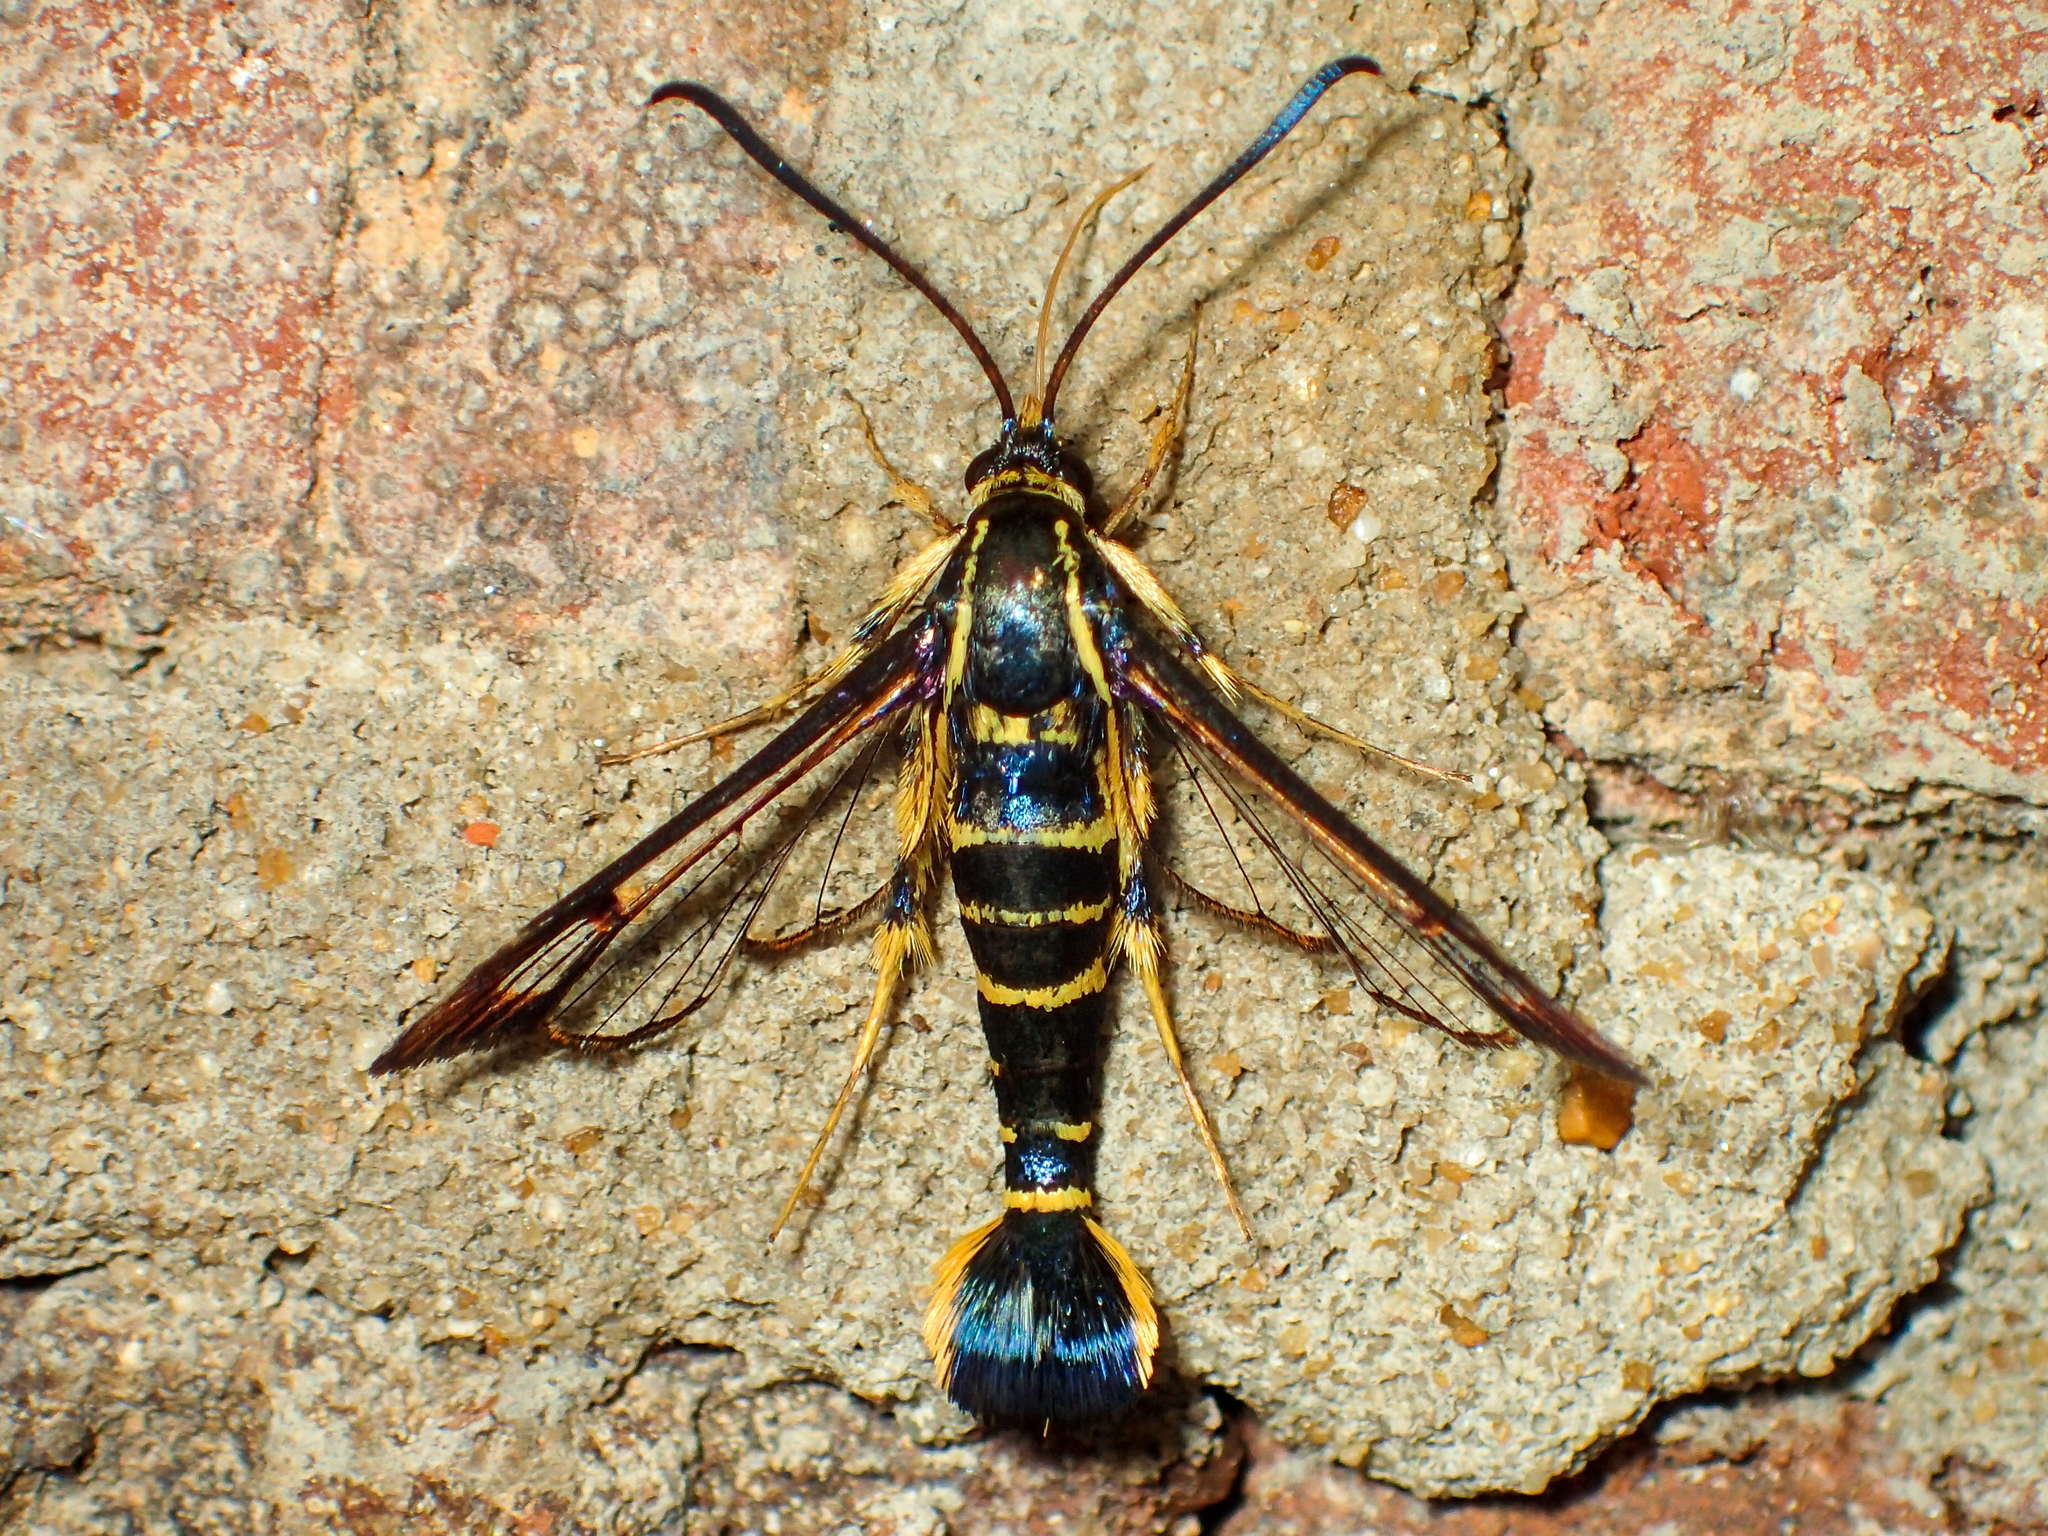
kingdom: Animalia
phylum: Arthropoda
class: Insecta
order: Lepidoptera
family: Sesiidae
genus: Synanthedon
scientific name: Synanthedon arkansasensis
